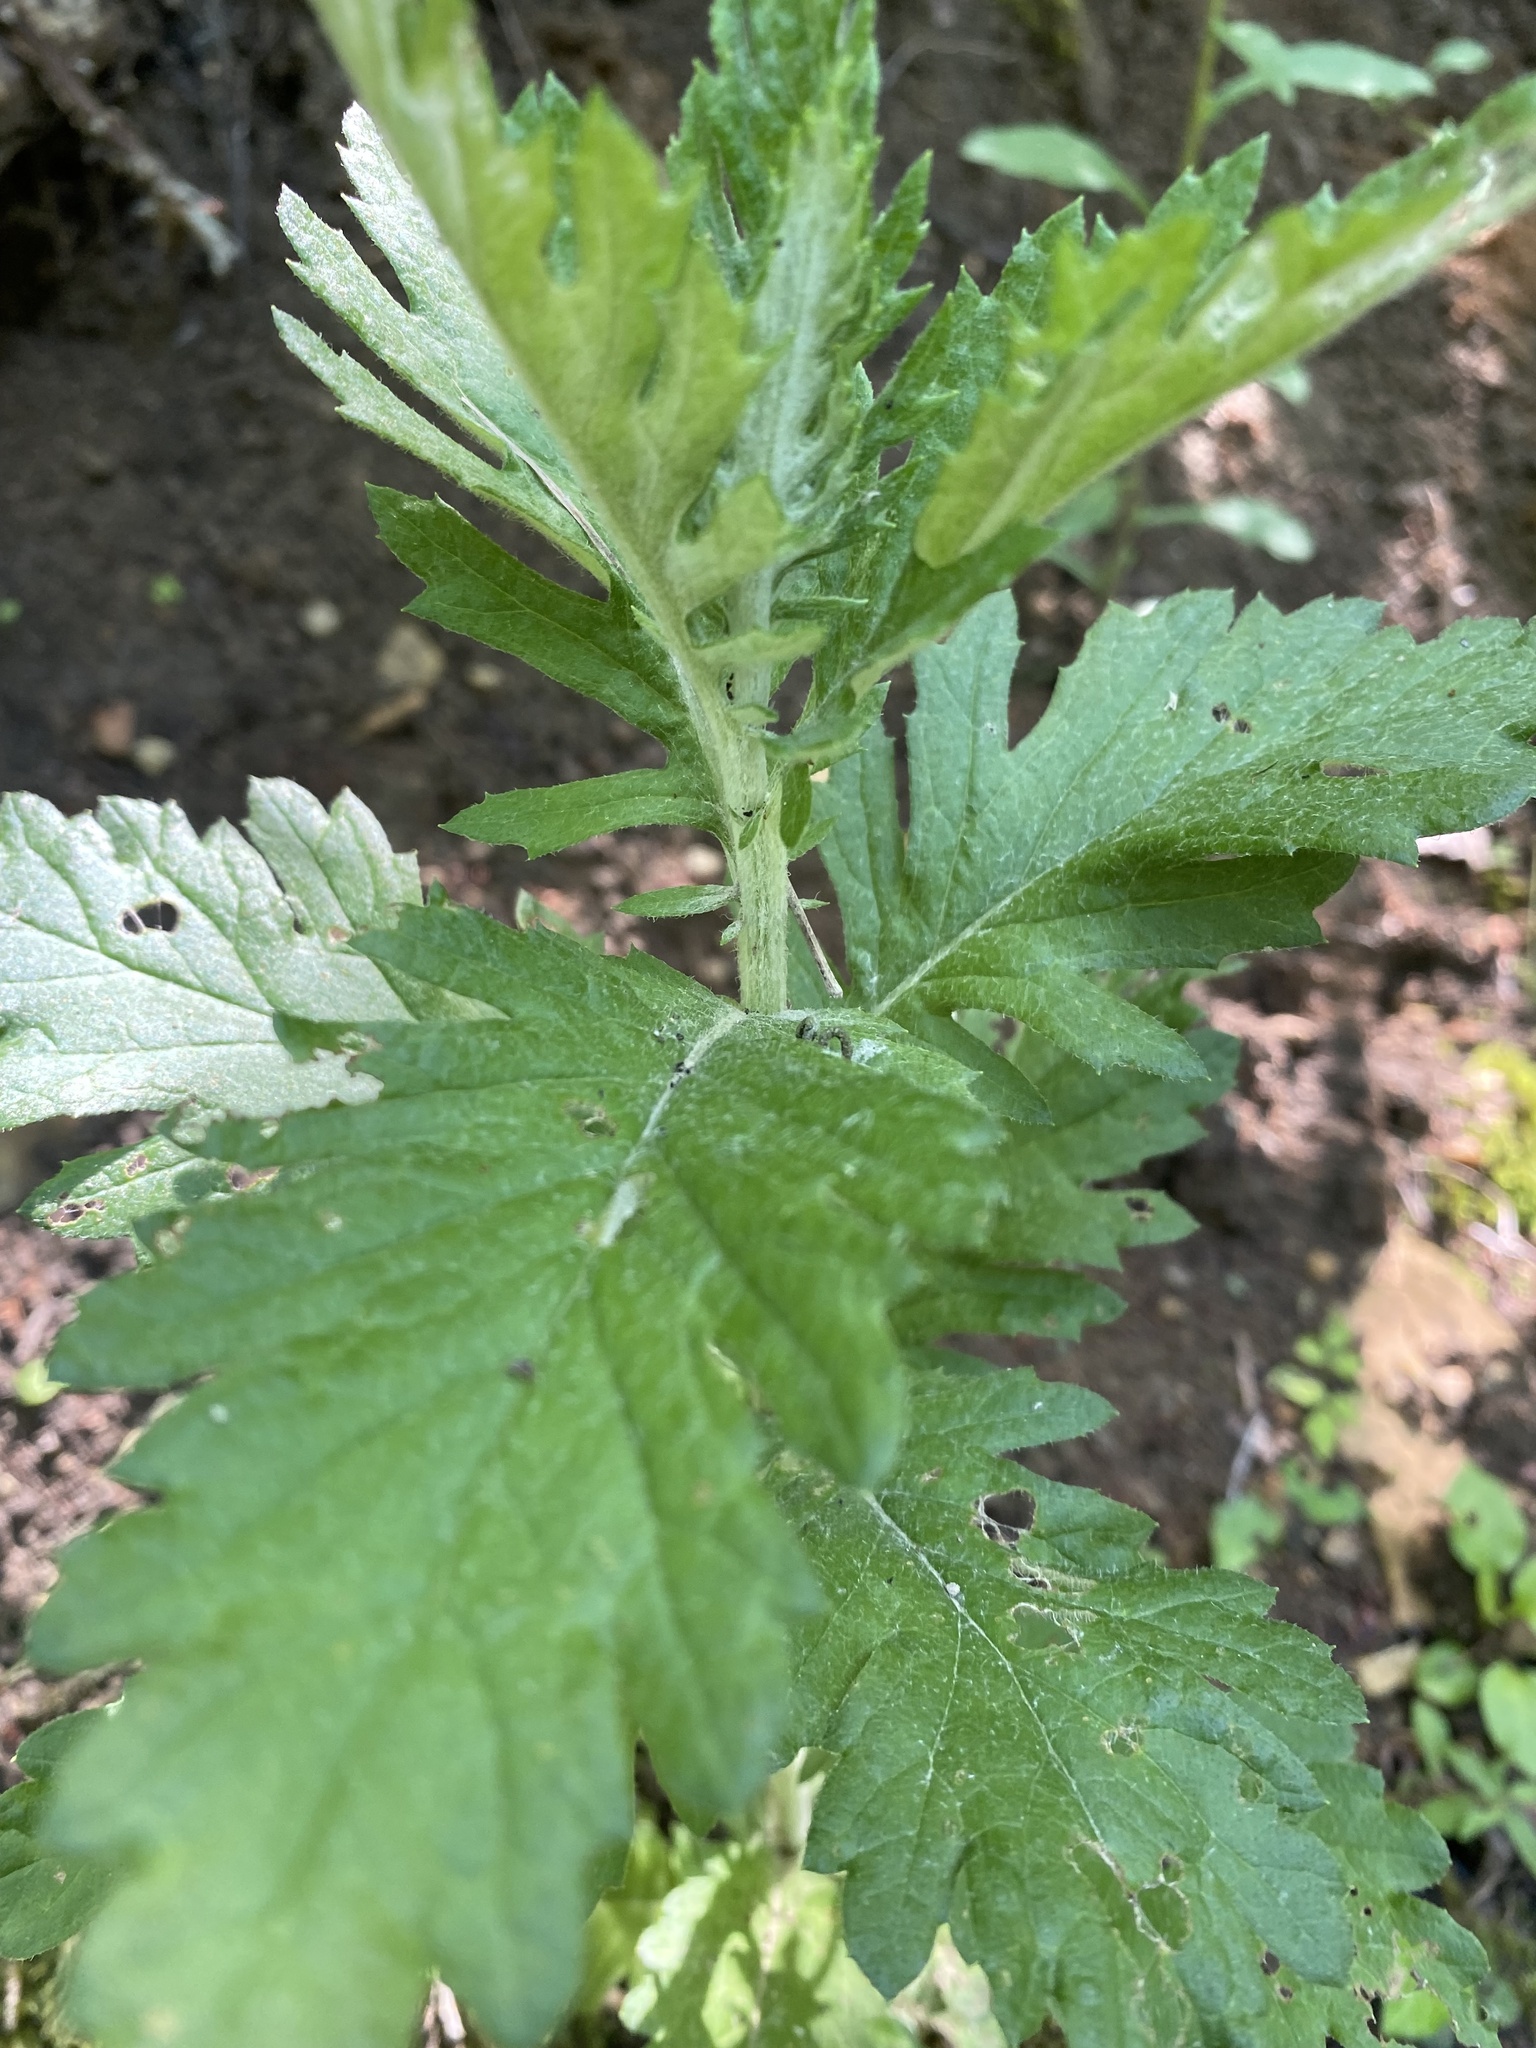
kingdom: Plantae
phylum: Tracheophyta
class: Magnoliopsida
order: Asterales
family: Asteraceae
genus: Jacobaea
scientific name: Jacobaea erucifolia
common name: Hoary ragwort
